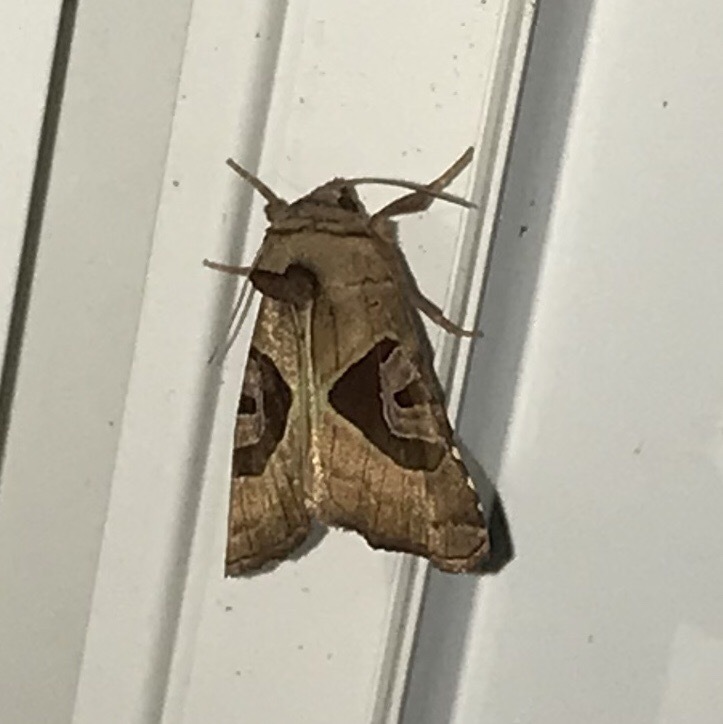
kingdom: Animalia
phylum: Arthropoda
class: Insecta
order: Lepidoptera
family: Noctuidae
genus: Conservula
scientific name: Conservula anodonta
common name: Sharp angle shades
